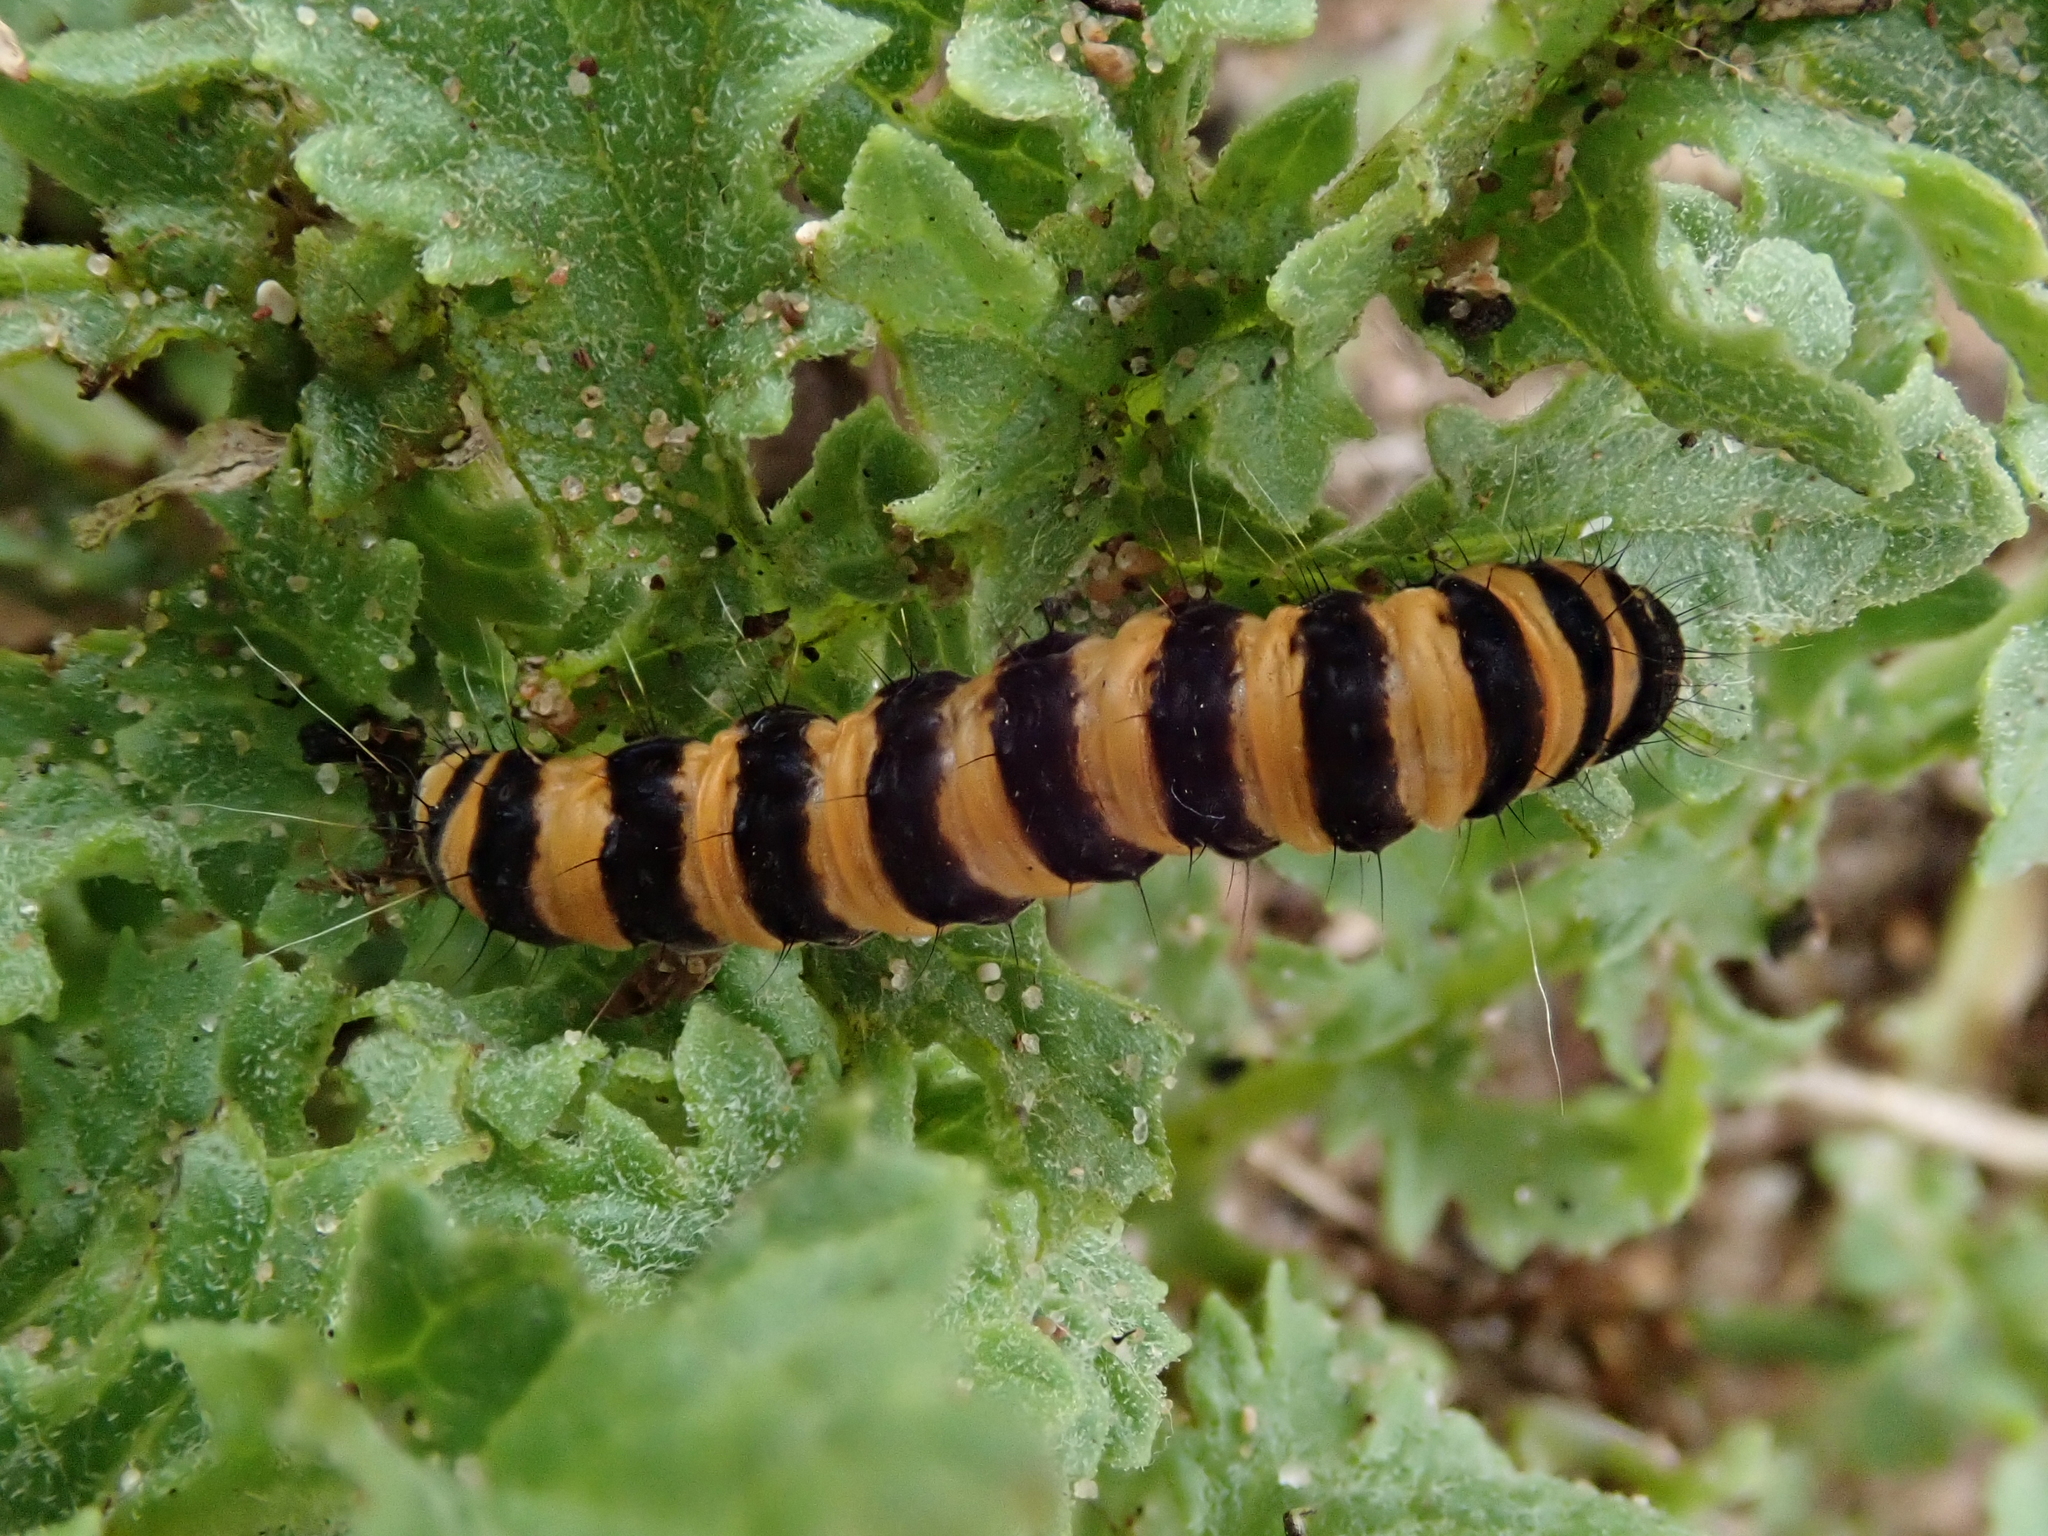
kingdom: Animalia
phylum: Arthropoda
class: Insecta
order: Lepidoptera
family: Erebidae
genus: Tyria
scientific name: Tyria jacobaeae
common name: Cinnabar
